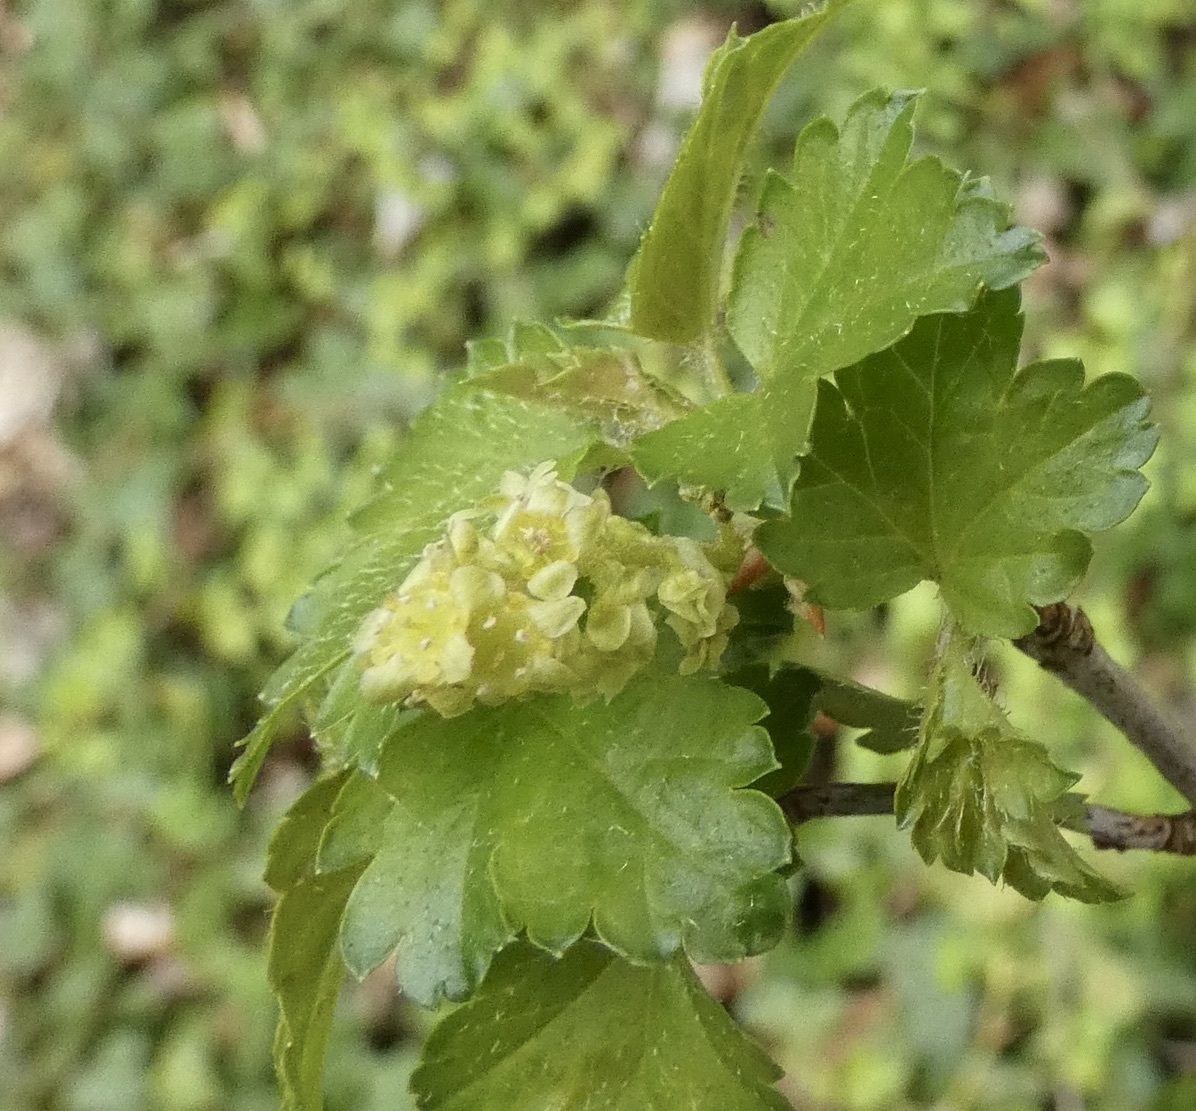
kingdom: Plantae
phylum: Tracheophyta
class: Magnoliopsida
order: Saxifragales
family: Grossulariaceae
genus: Ribes
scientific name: Ribes alpinum
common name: Alpine currant
